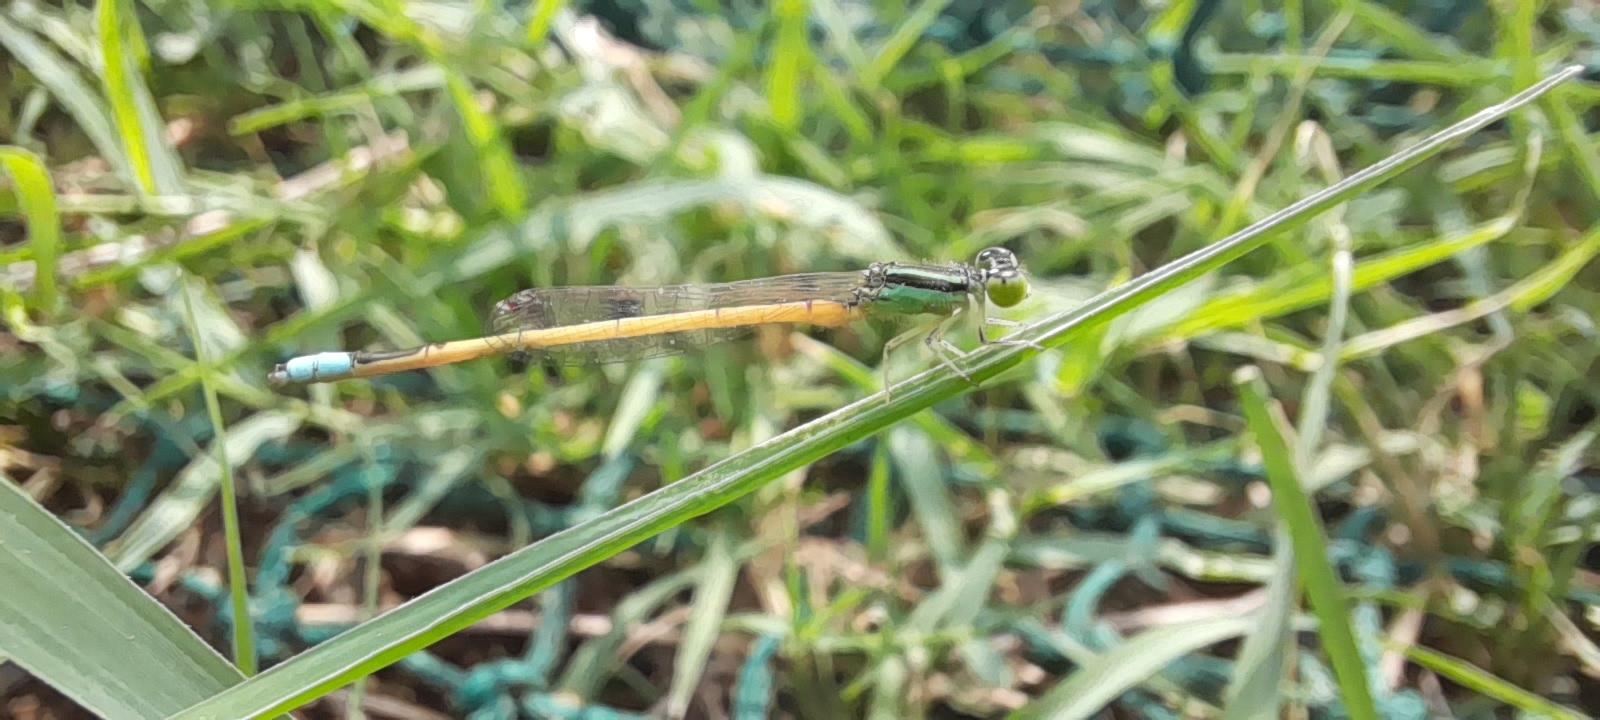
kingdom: Animalia
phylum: Arthropoda
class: Insecta
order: Odonata
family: Coenagrionidae
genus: Ischnura
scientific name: Ischnura rubilio
